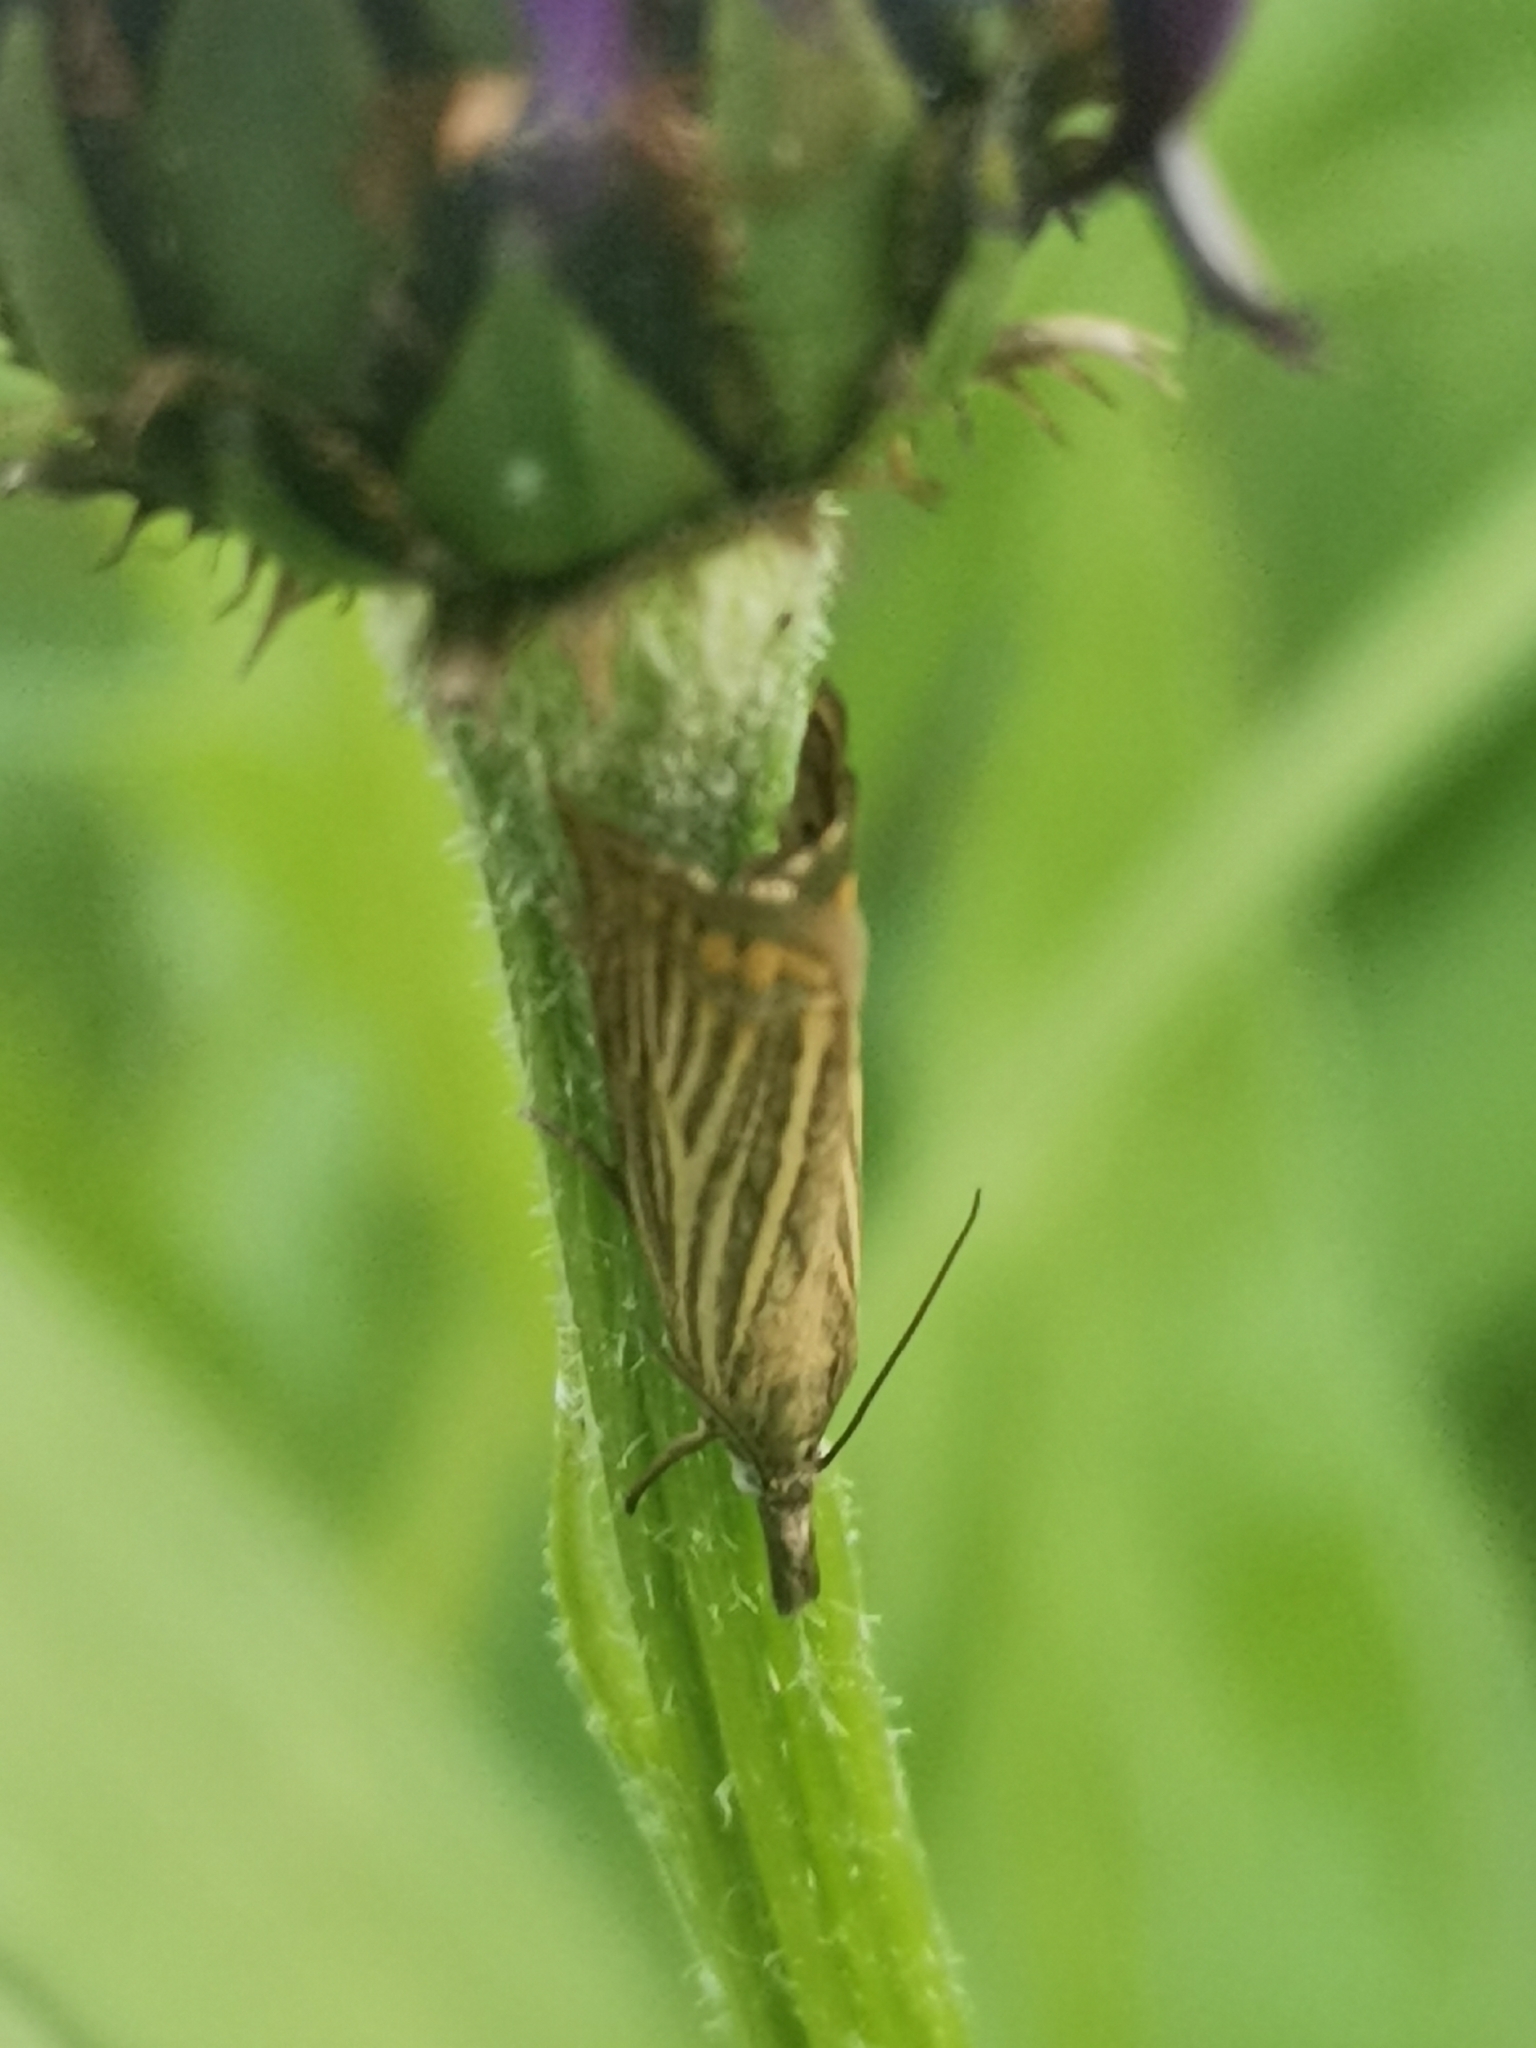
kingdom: Animalia
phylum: Arthropoda
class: Insecta
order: Lepidoptera
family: Crambidae
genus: Chrysoteuchia
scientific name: Chrysoteuchia culmella
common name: Garden grass-veneer
